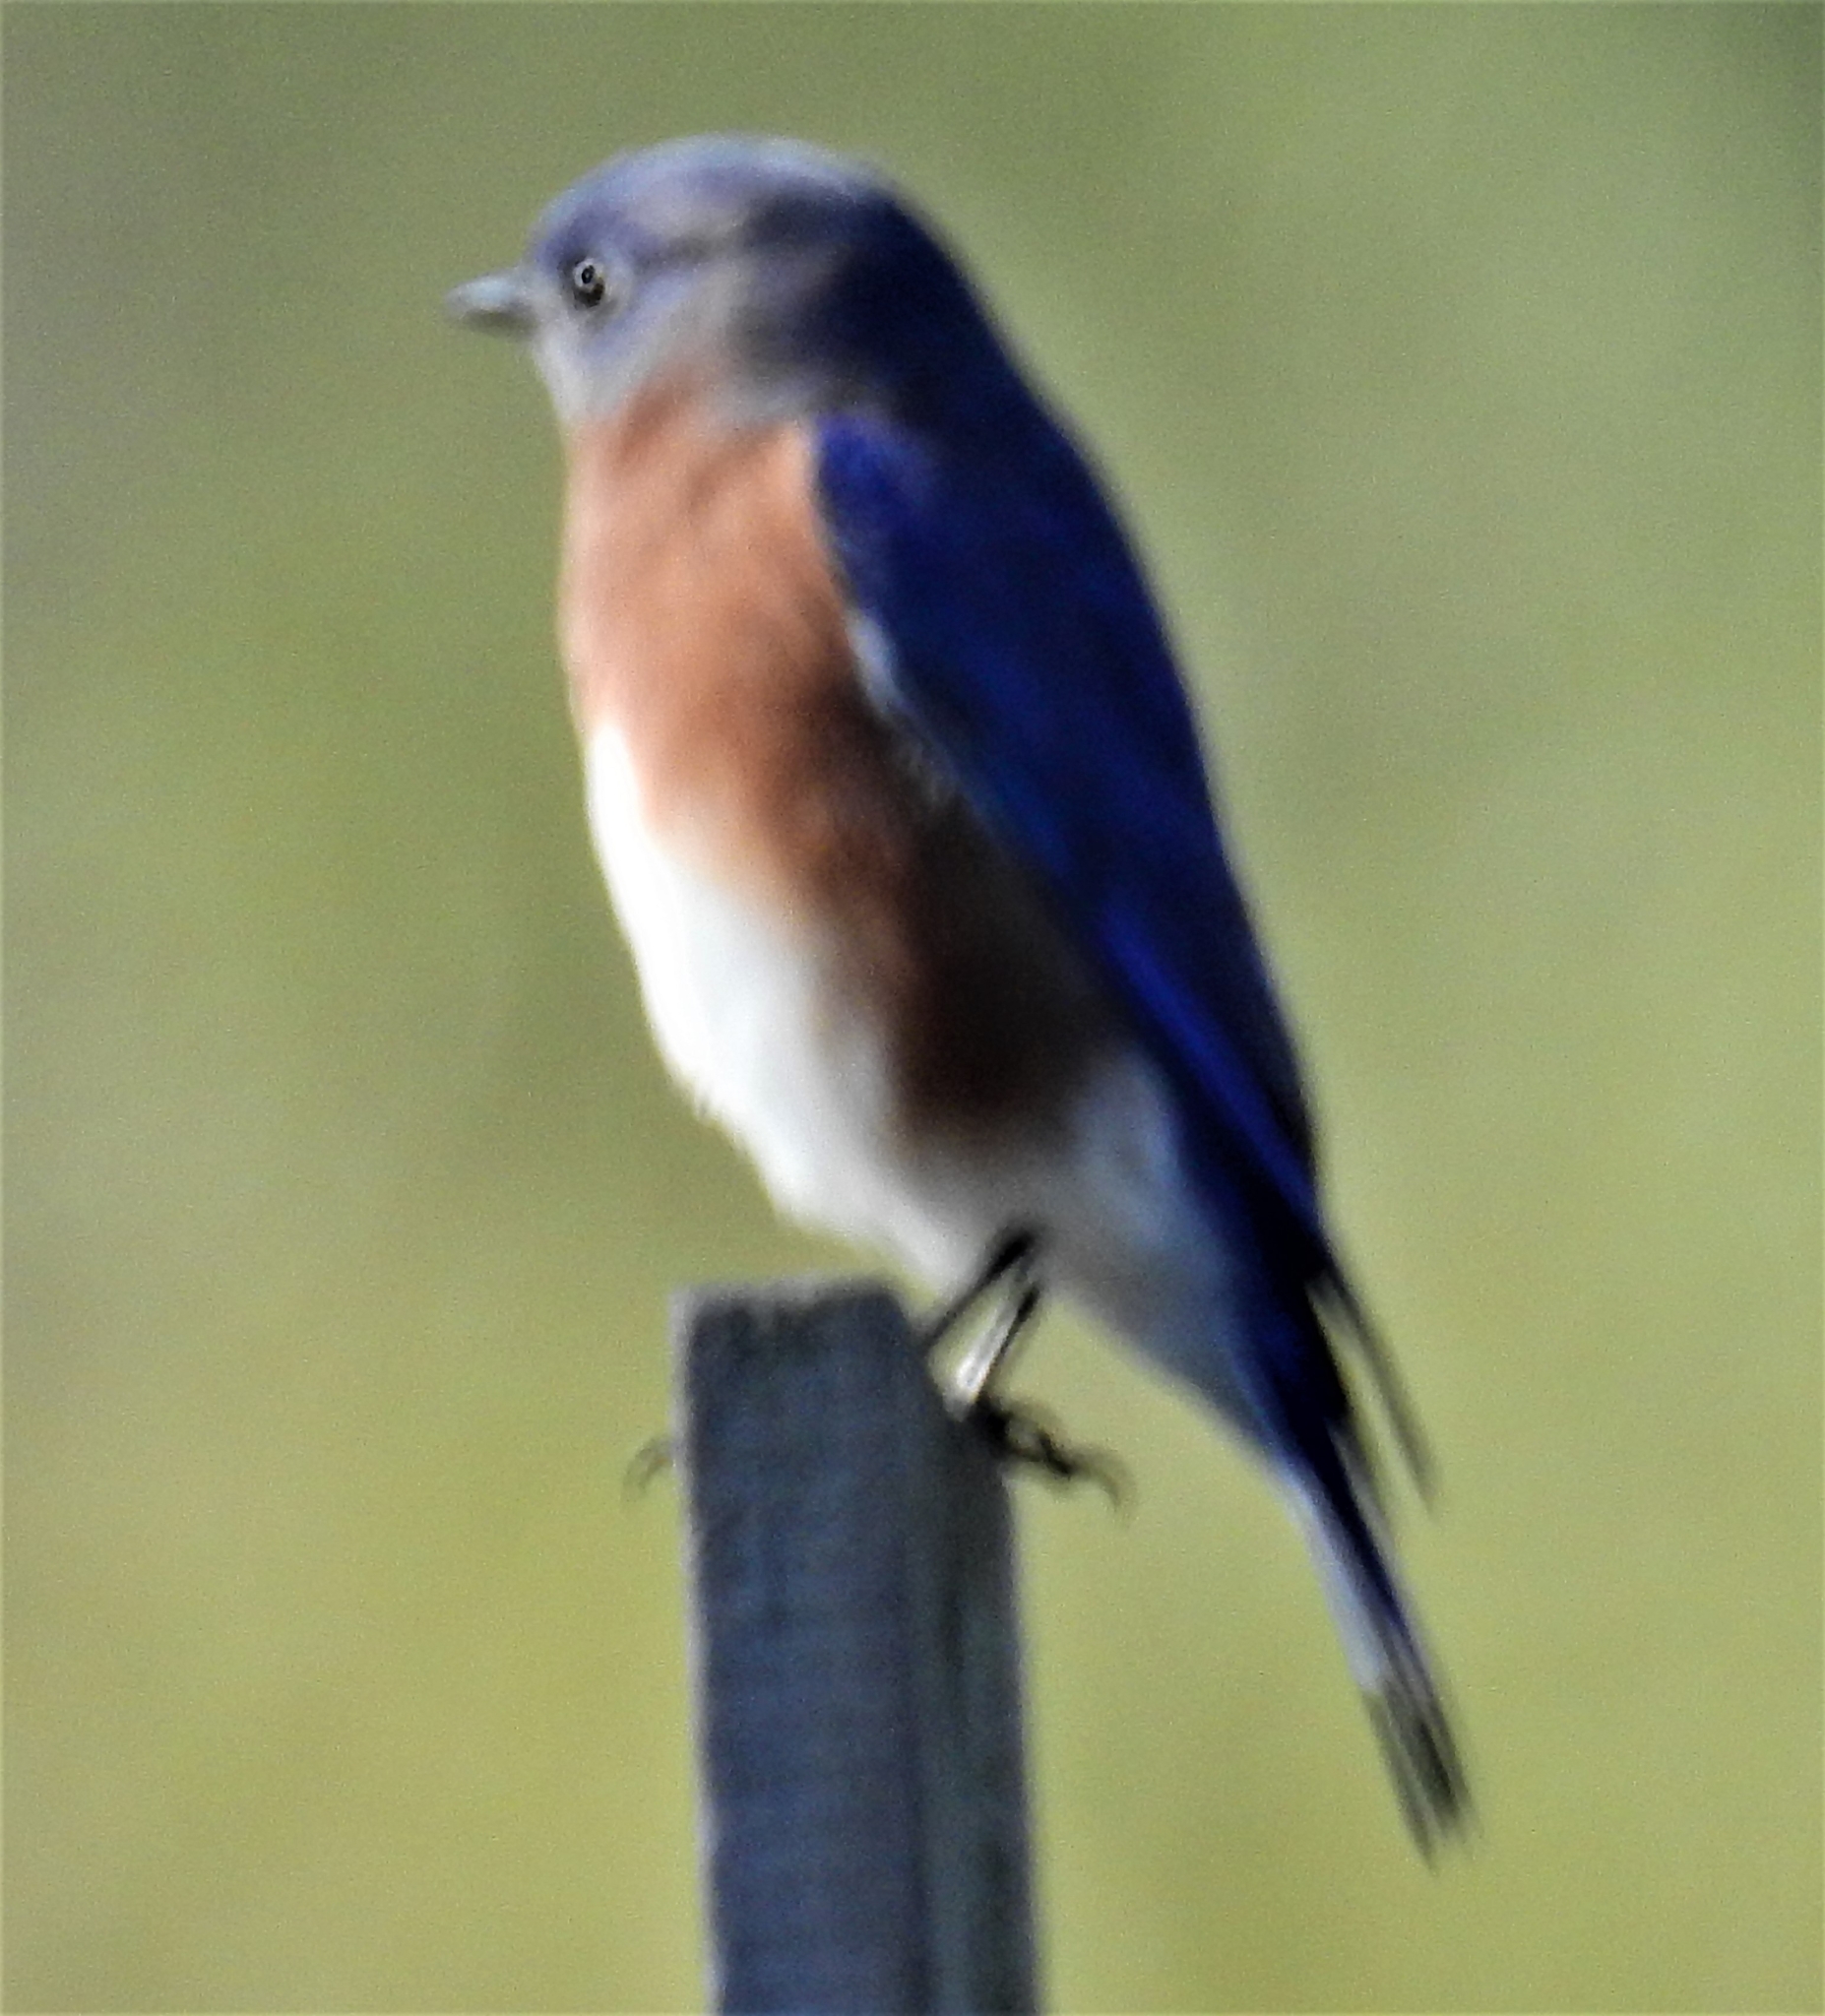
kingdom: Animalia
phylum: Chordata
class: Aves
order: Passeriformes
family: Turdidae
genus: Sialia
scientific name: Sialia sialis
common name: Eastern bluebird
